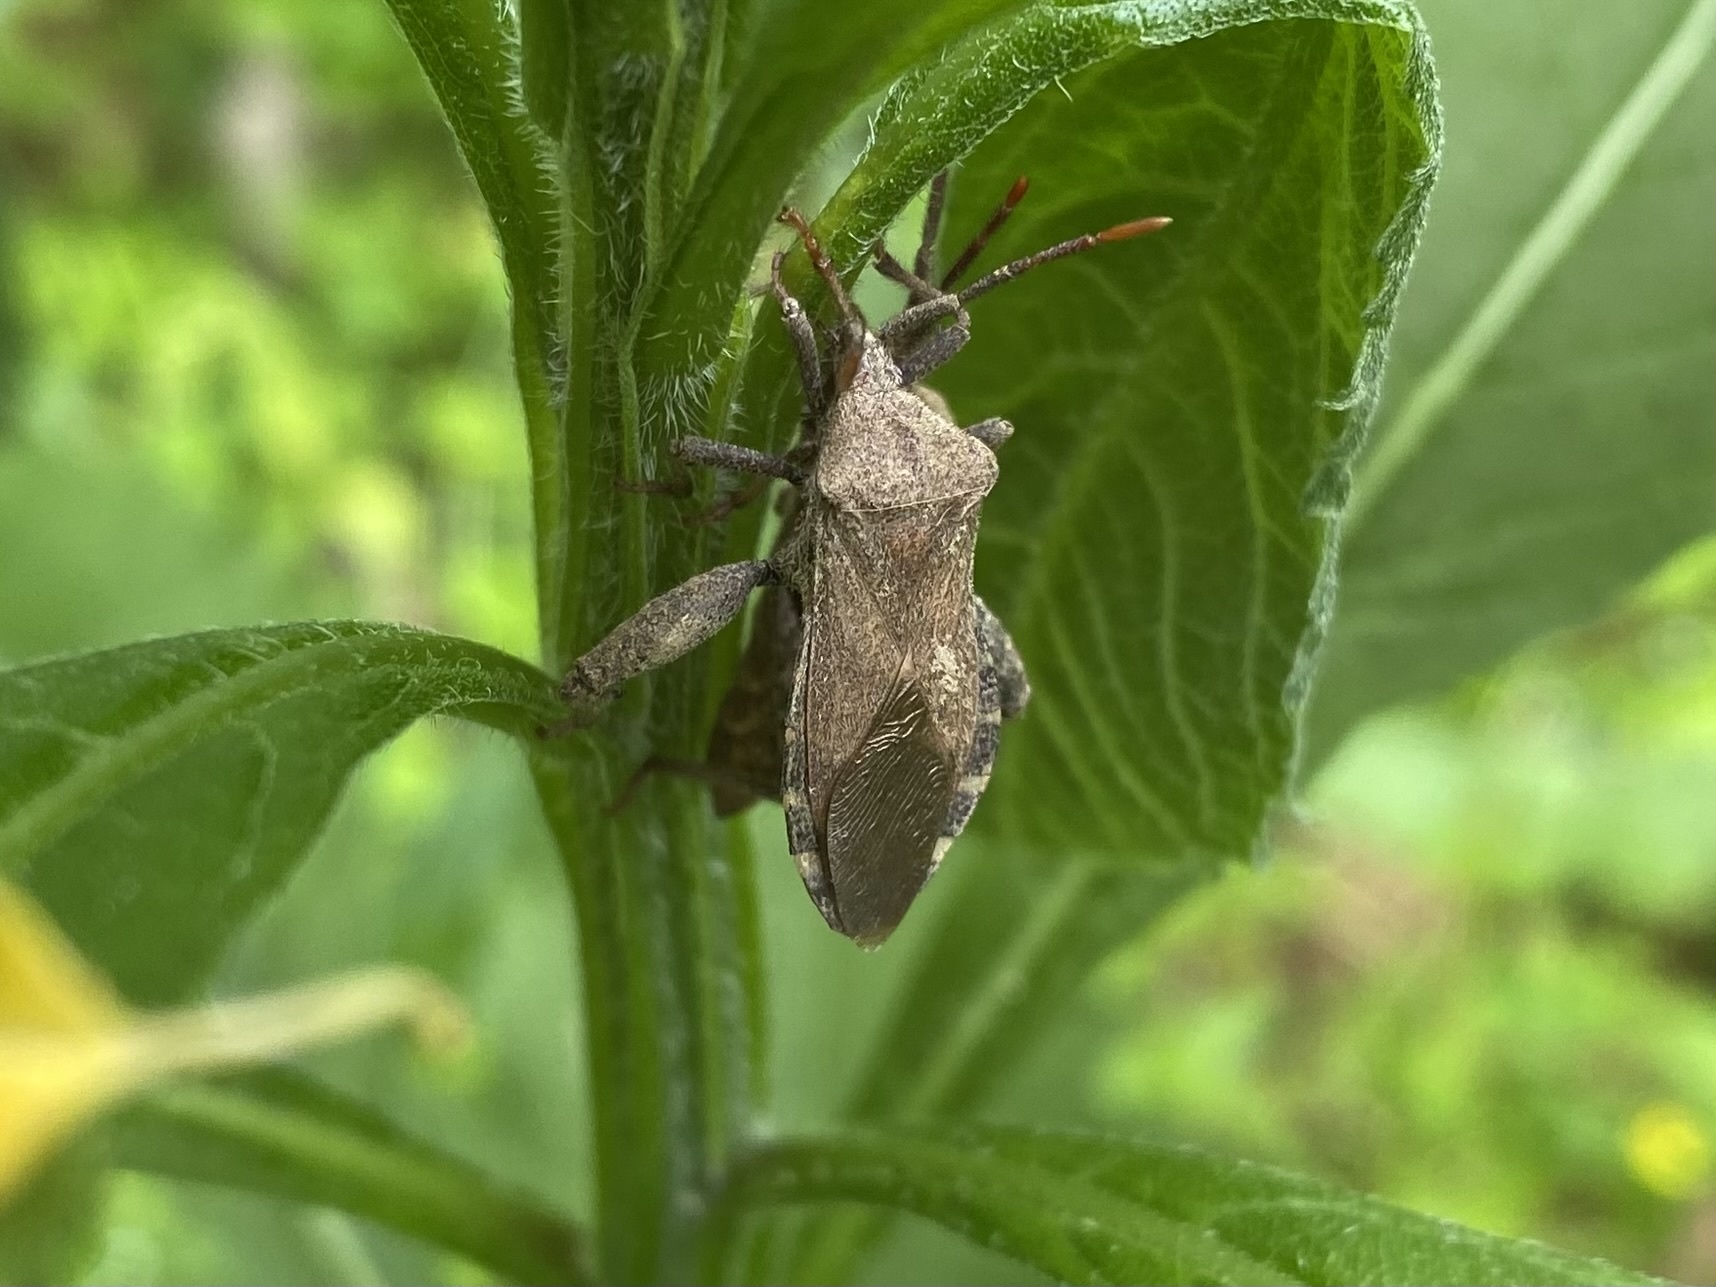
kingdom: Animalia
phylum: Arthropoda
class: Insecta
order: Hemiptera
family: Coreidae
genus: Piezogaster
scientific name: Piezogaster calcarator
